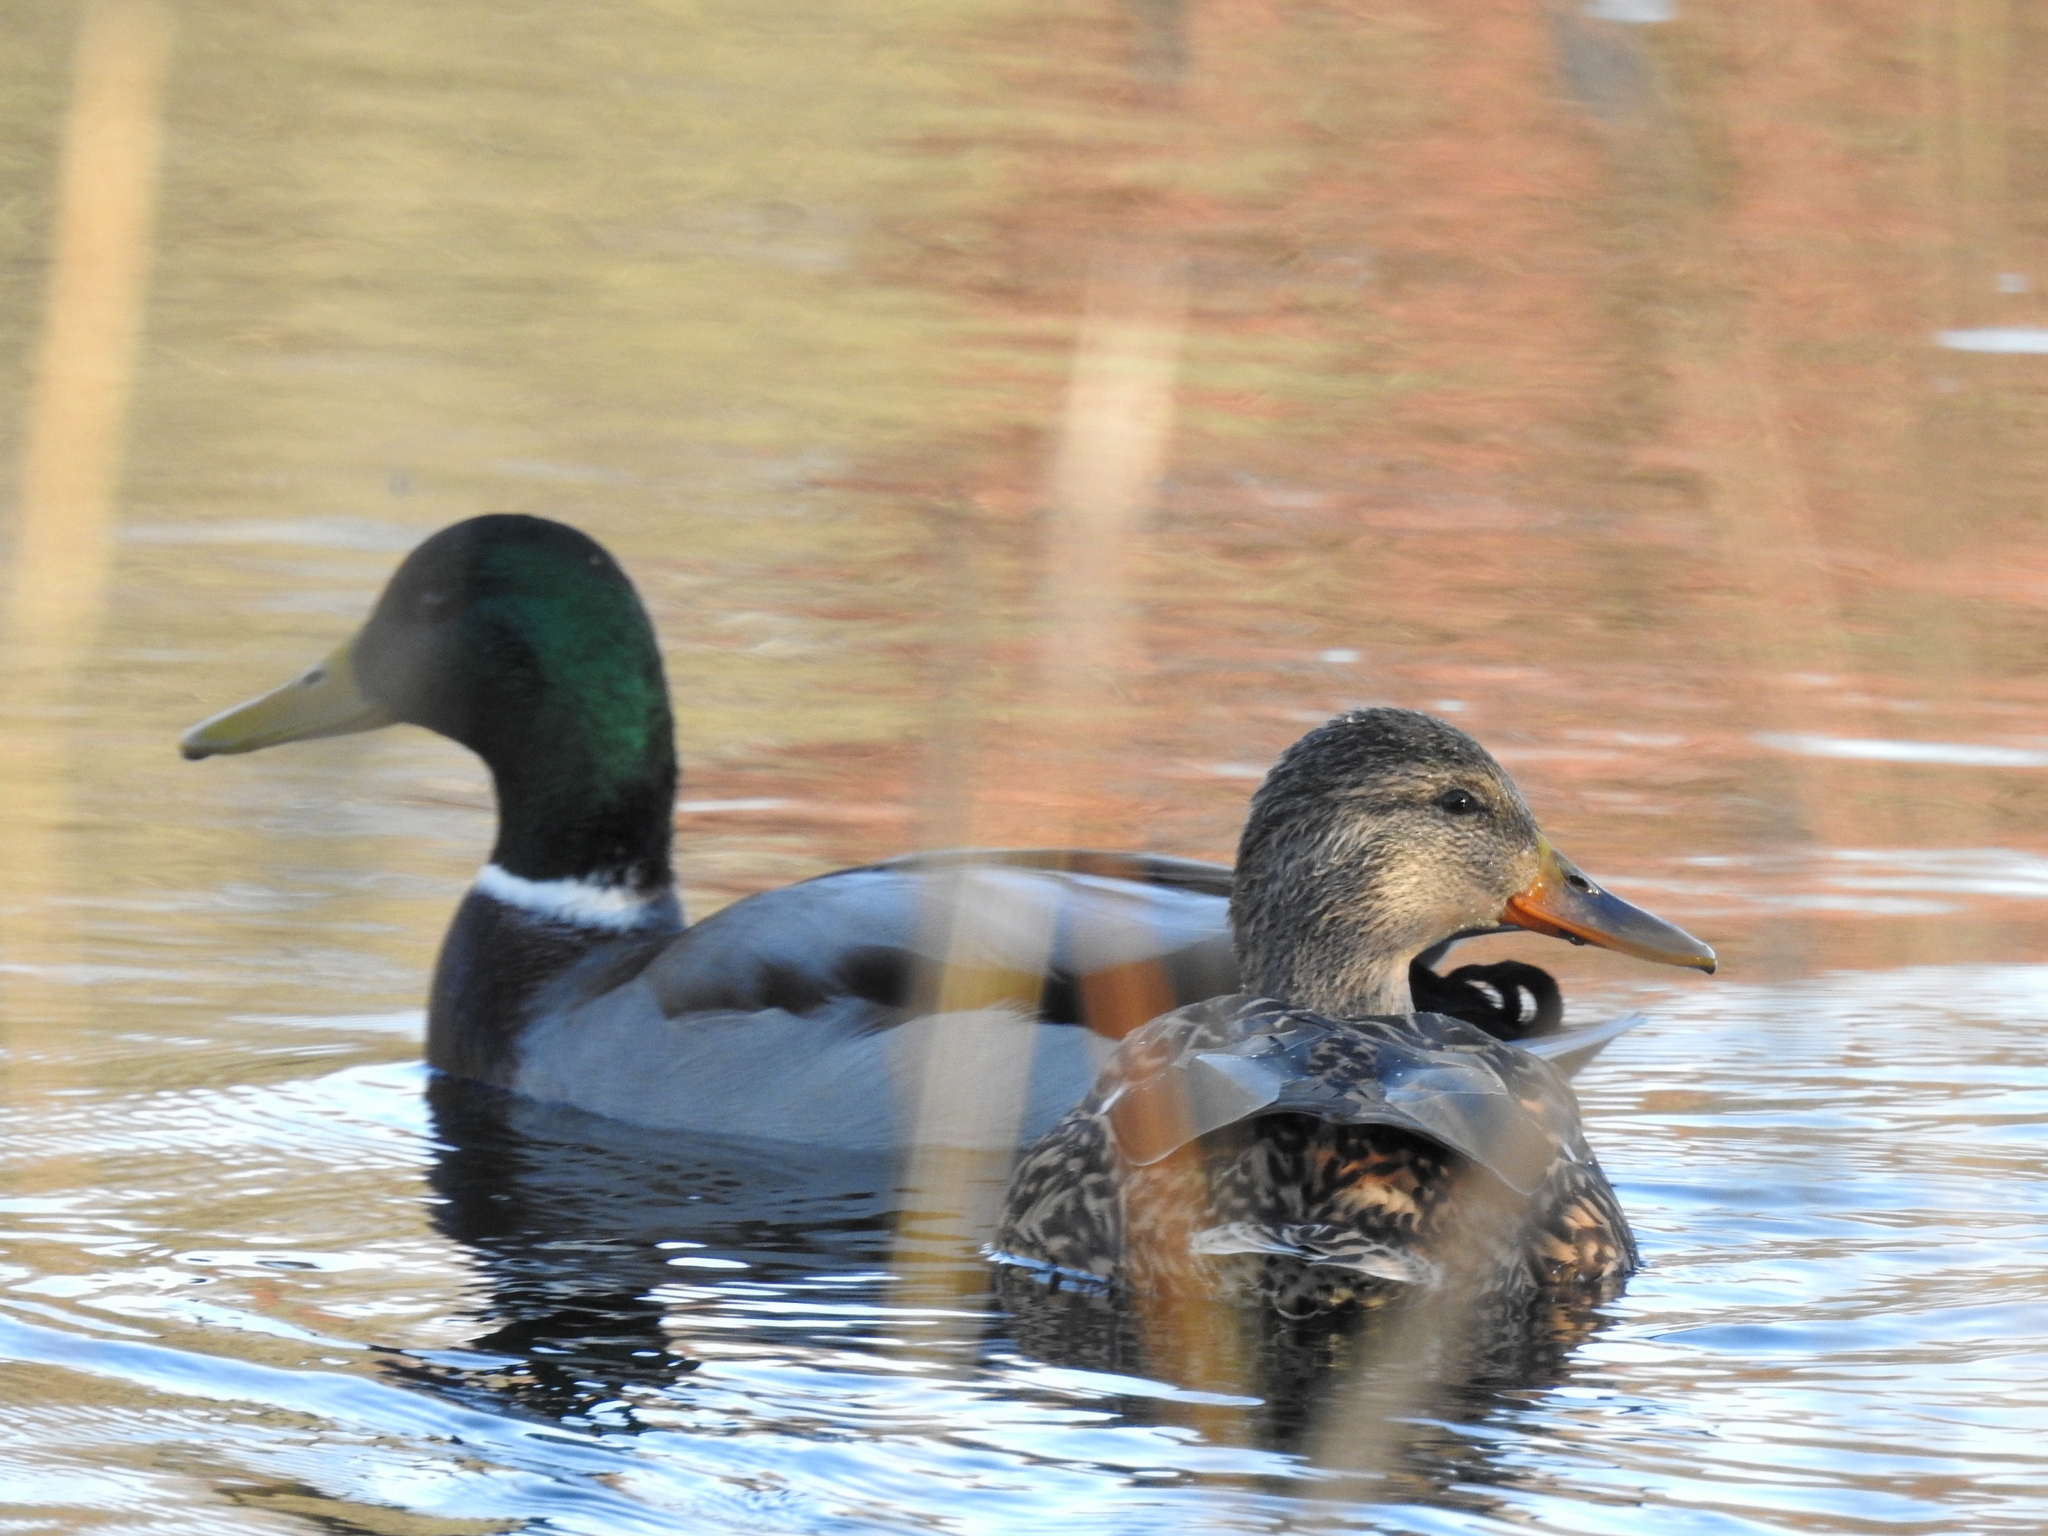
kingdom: Animalia
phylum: Chordata
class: Aves
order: Anseriformes
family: Anatidae
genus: Anas
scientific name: Anas platyrhynchos
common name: Mallard
